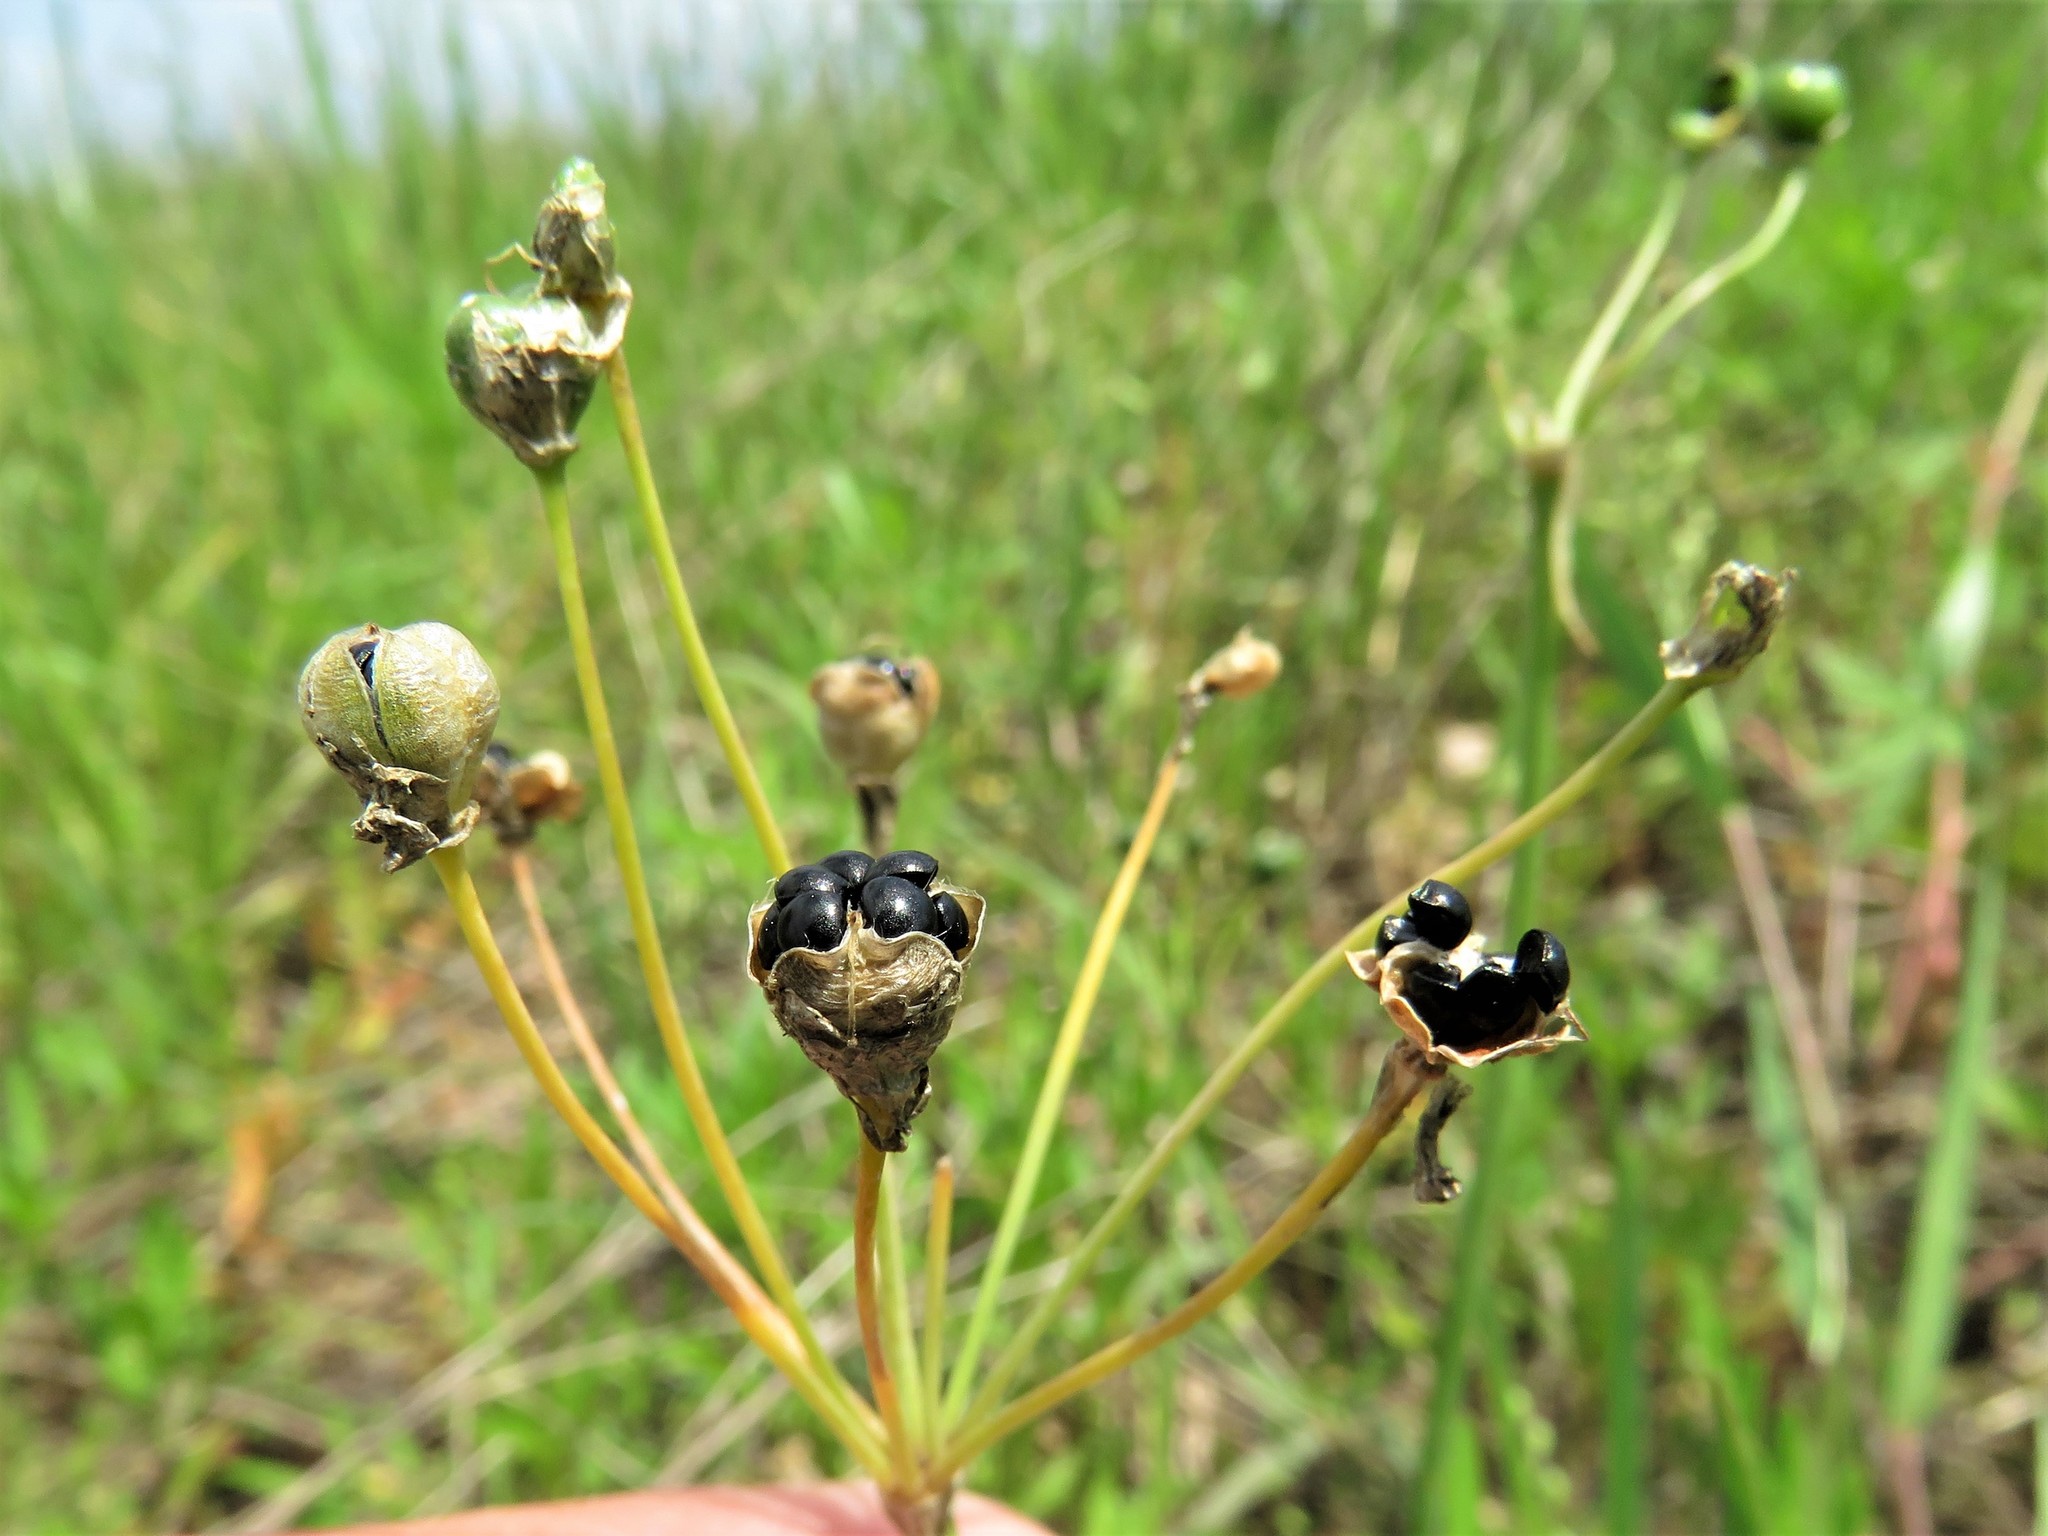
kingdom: Plantae
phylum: Tracheophyta
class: Liliopsida
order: Asparagales
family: Amaryllidaceae
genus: Nothoscordum
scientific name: Nothoscordum bivalve
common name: Crow-poison
